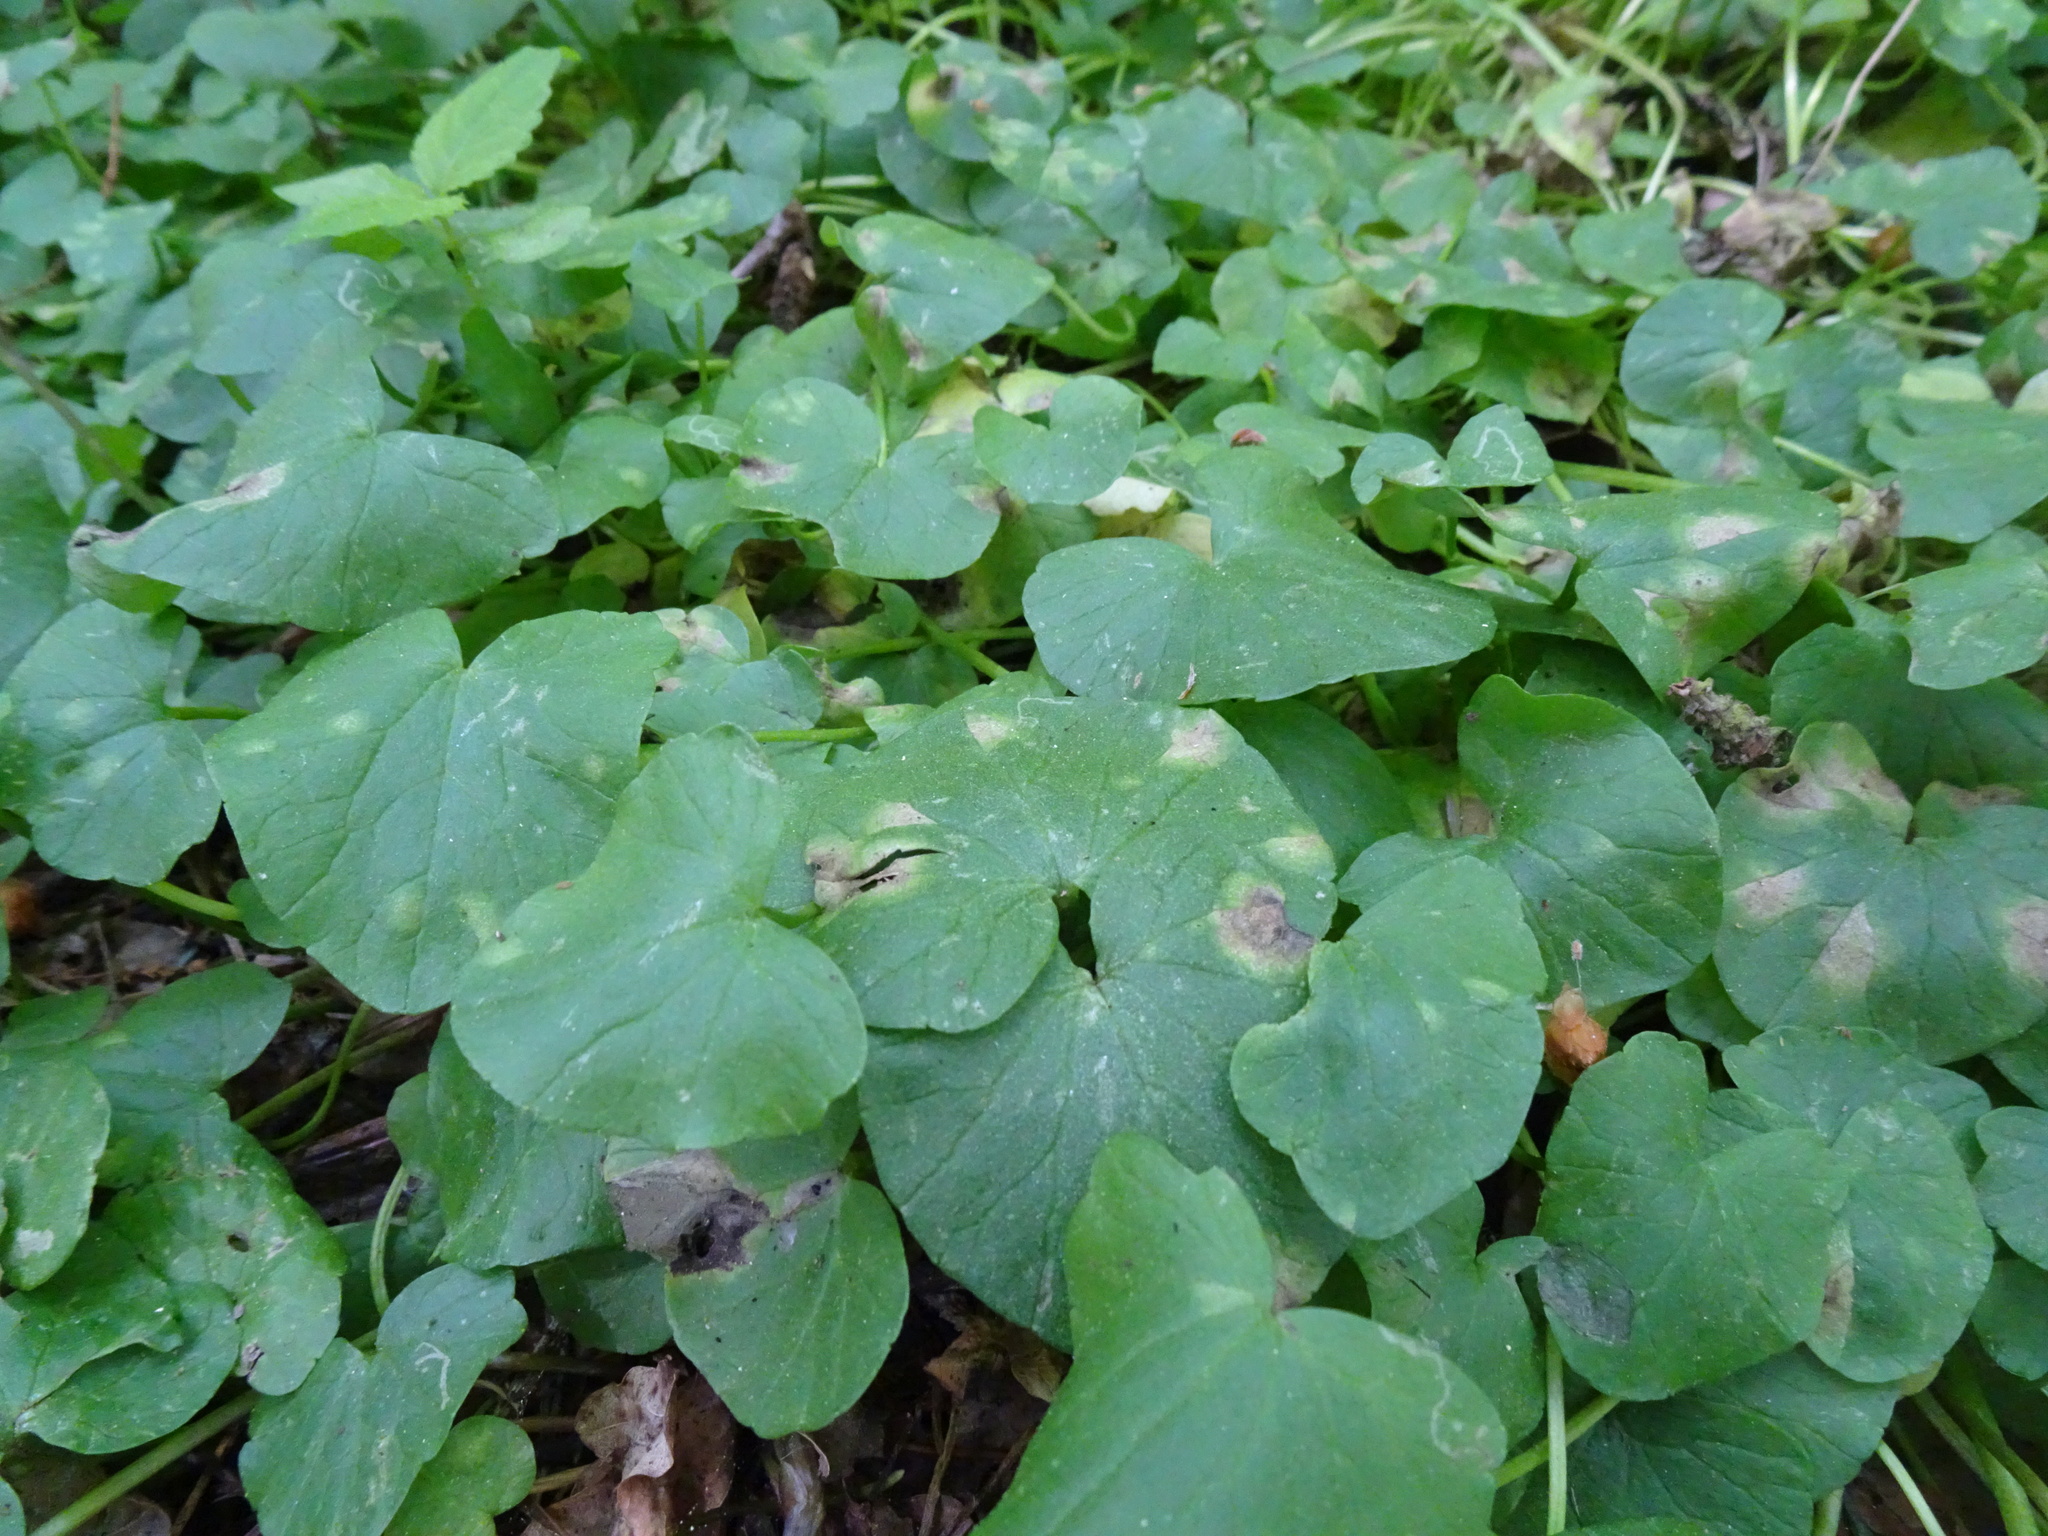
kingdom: Plantae
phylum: Tracheophyta
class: Magnoliopsida
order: Ranunculales
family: Ranunculaceae
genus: Ficaria
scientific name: Ficaria verna
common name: Lesser celandine
